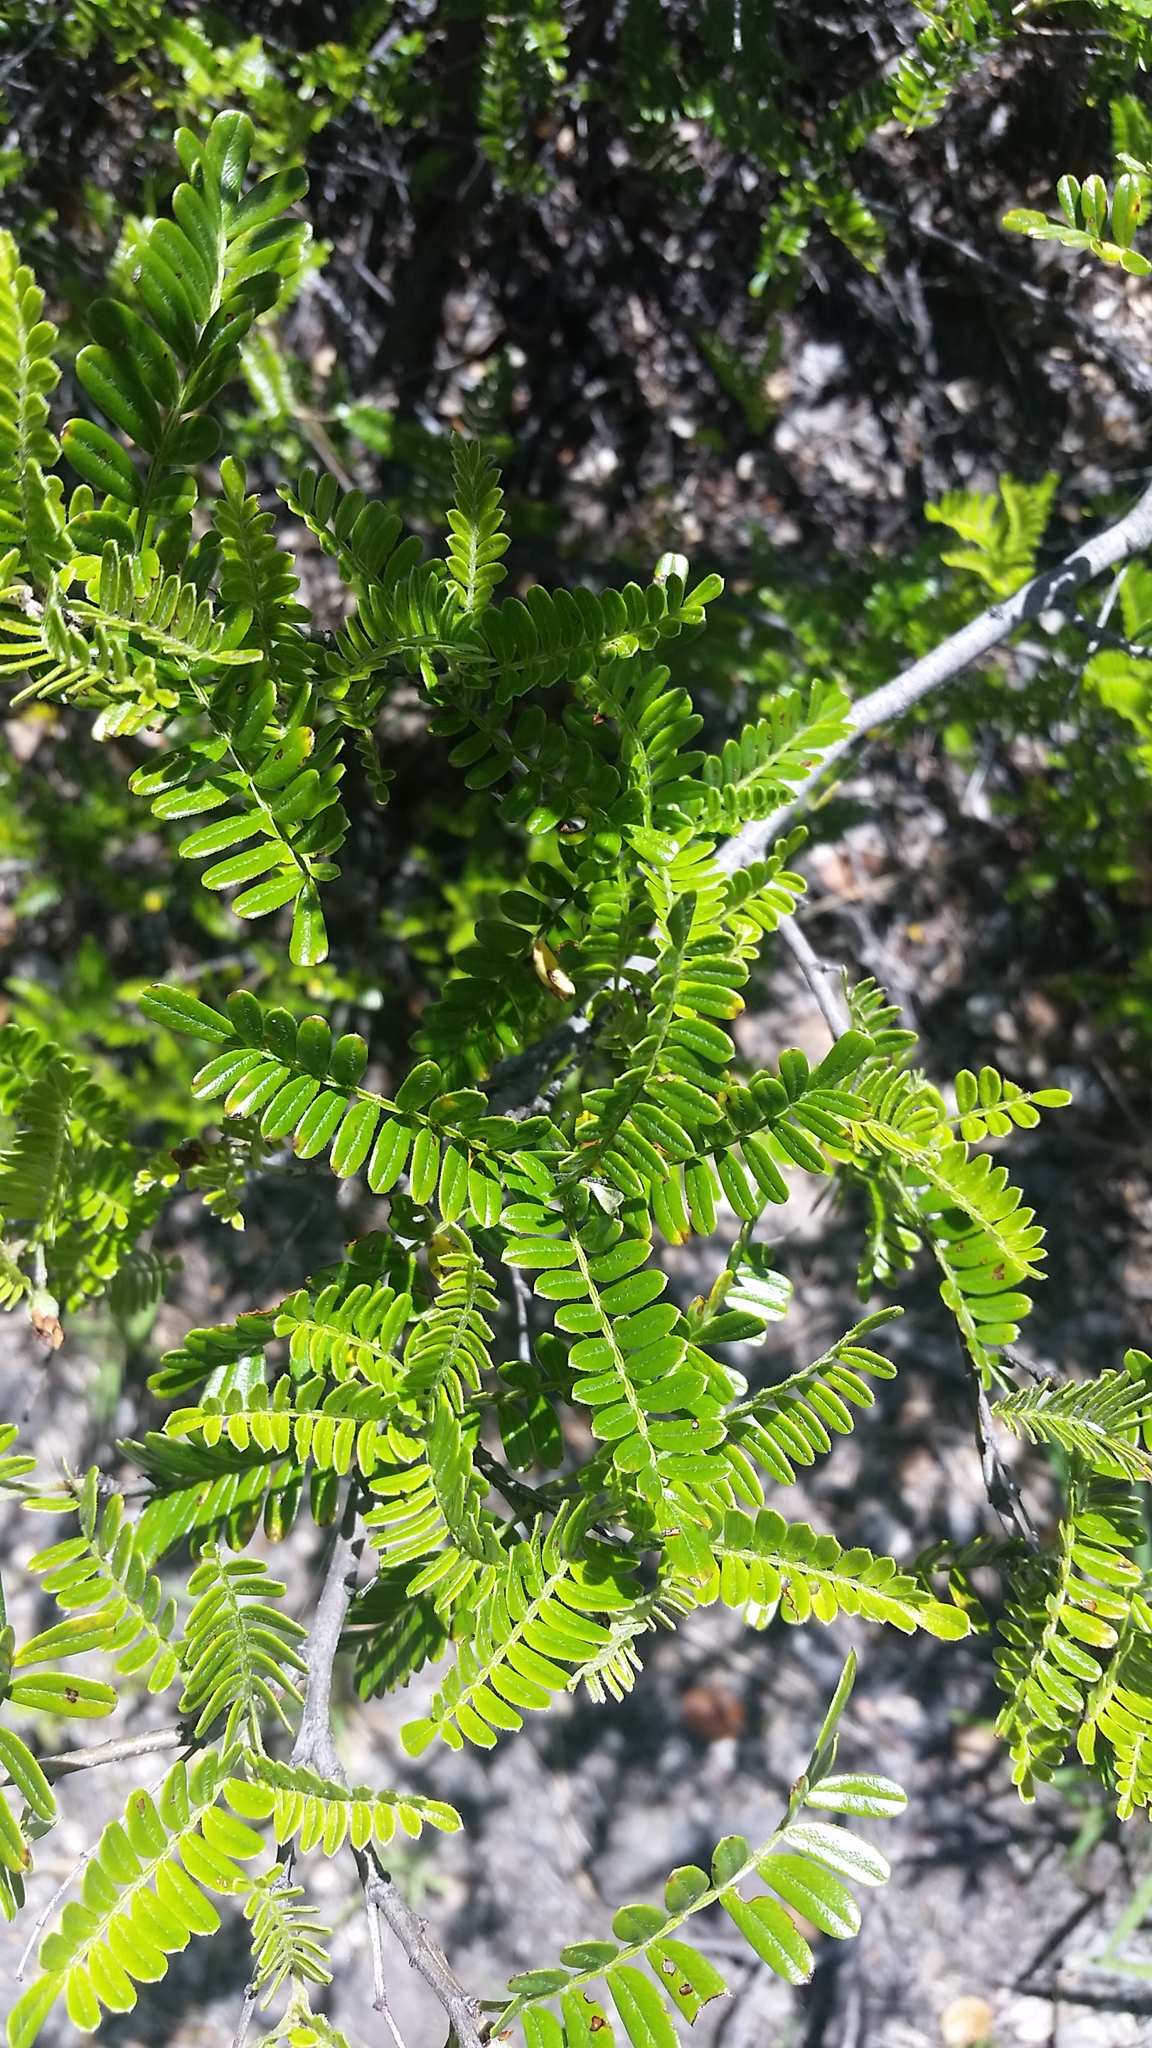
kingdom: Plantae
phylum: Tracheophyta
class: Magnoliopsida
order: Rosales
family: Rosaceae
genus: Osteomeles
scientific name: Osteomeles anthyllidifolia
